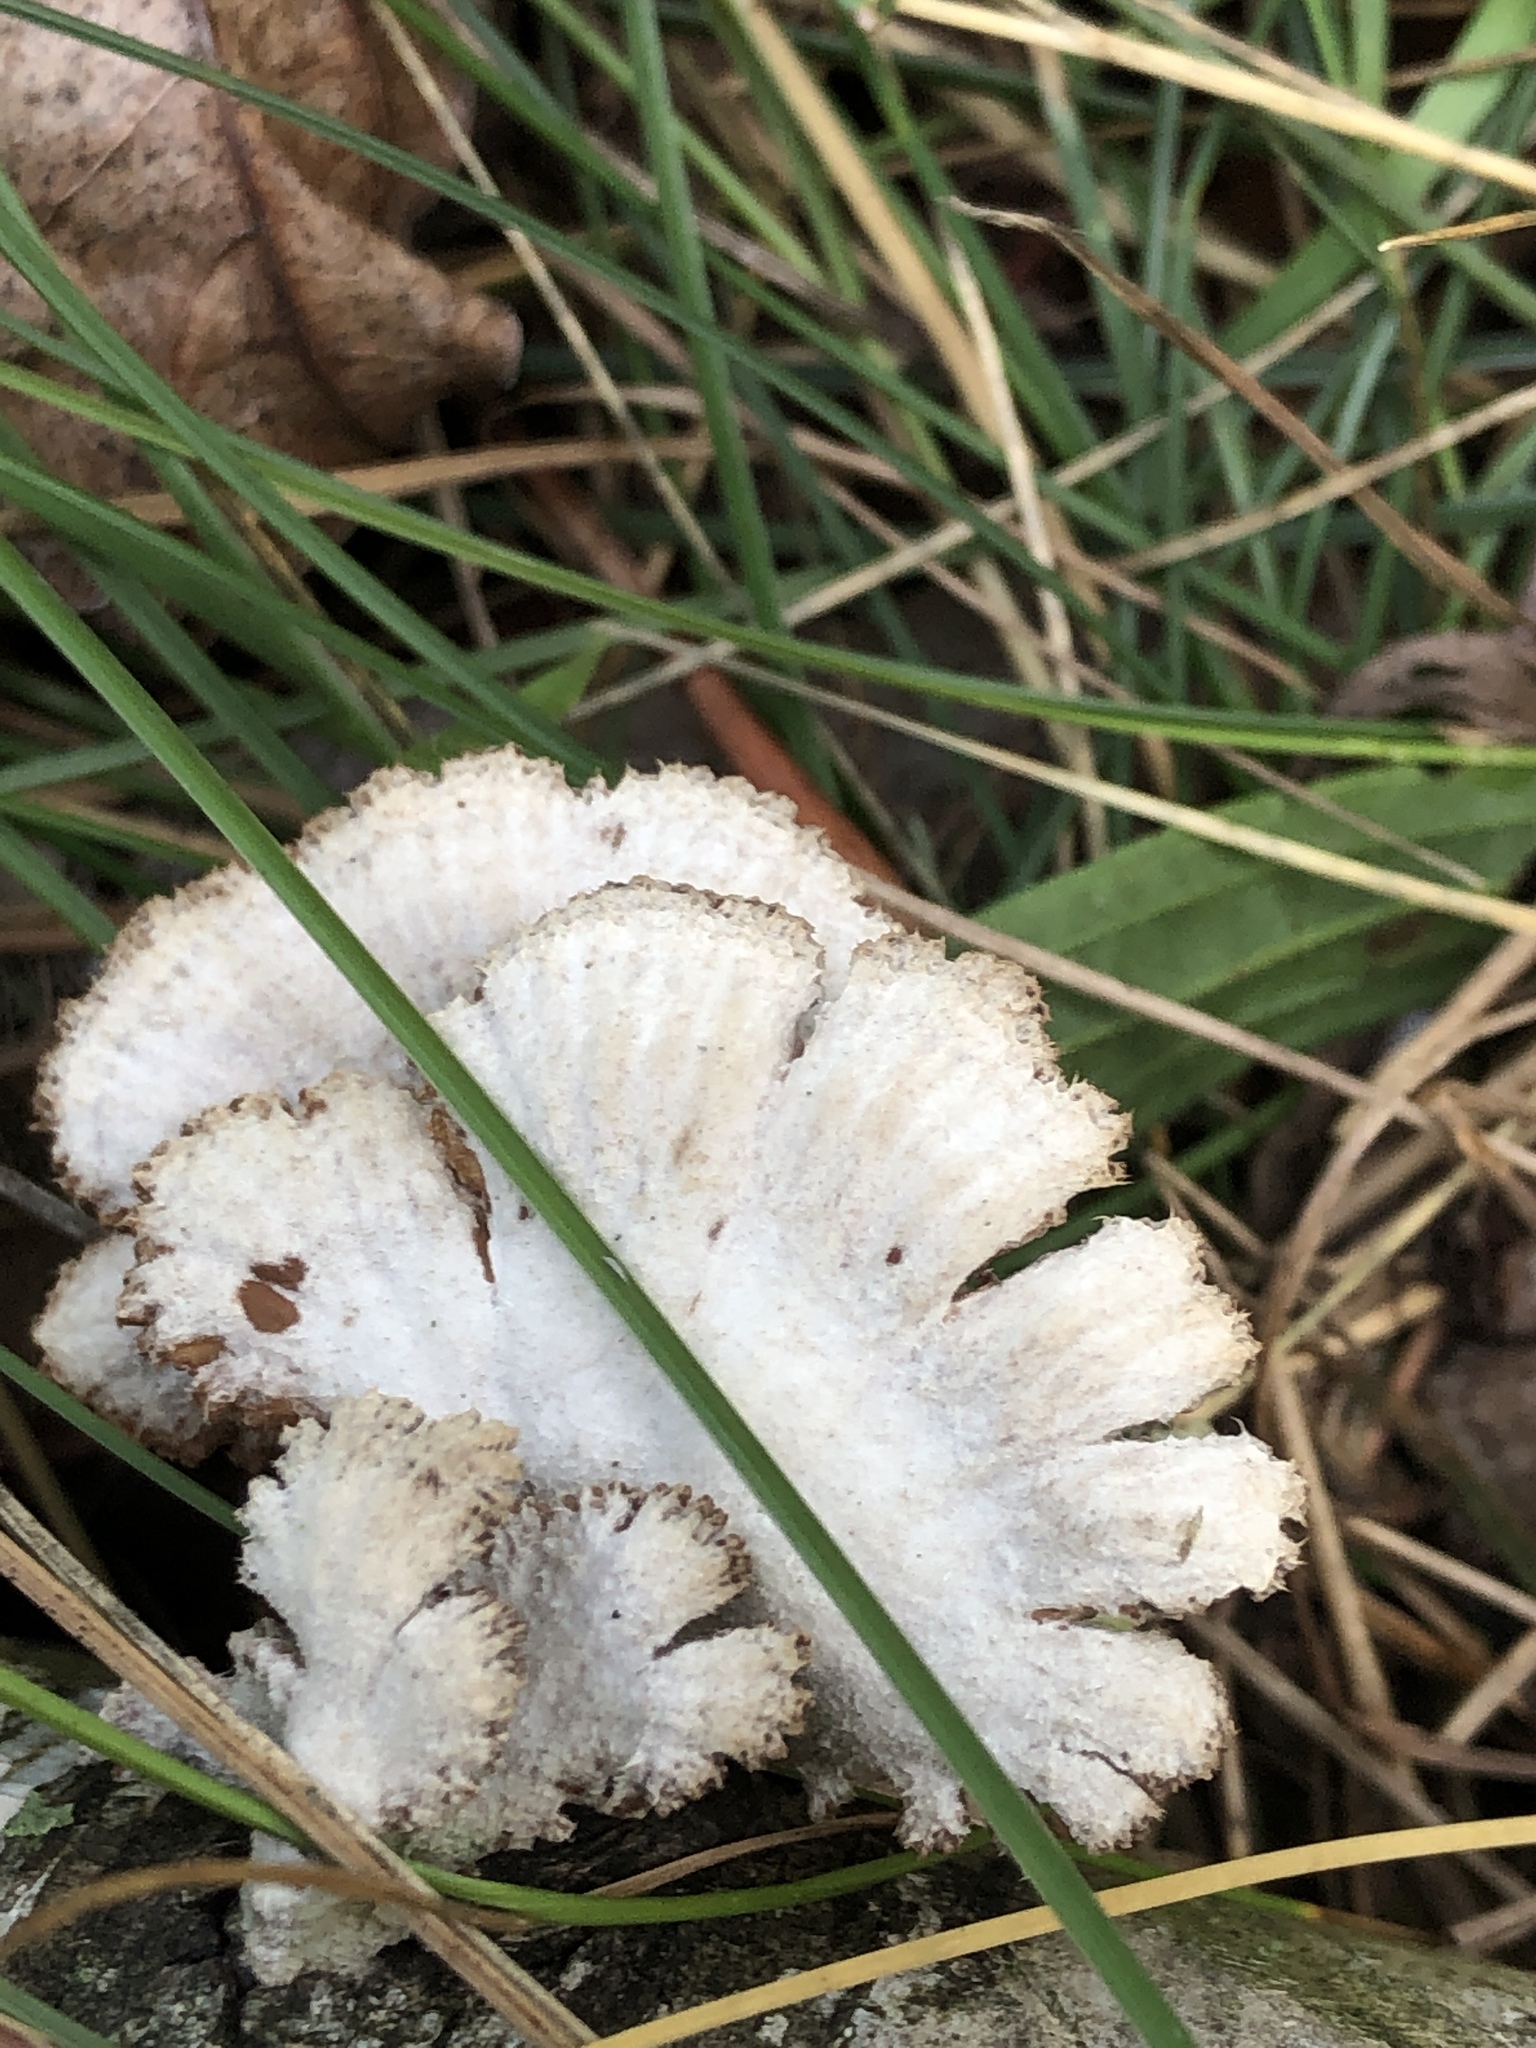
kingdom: Fungi
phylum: Basidiomycota
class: Agaricomycetes
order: Agaricales
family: Schizophyllaceae
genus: Schizophyllum
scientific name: Schizophyllum commune
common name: Common porecrust
